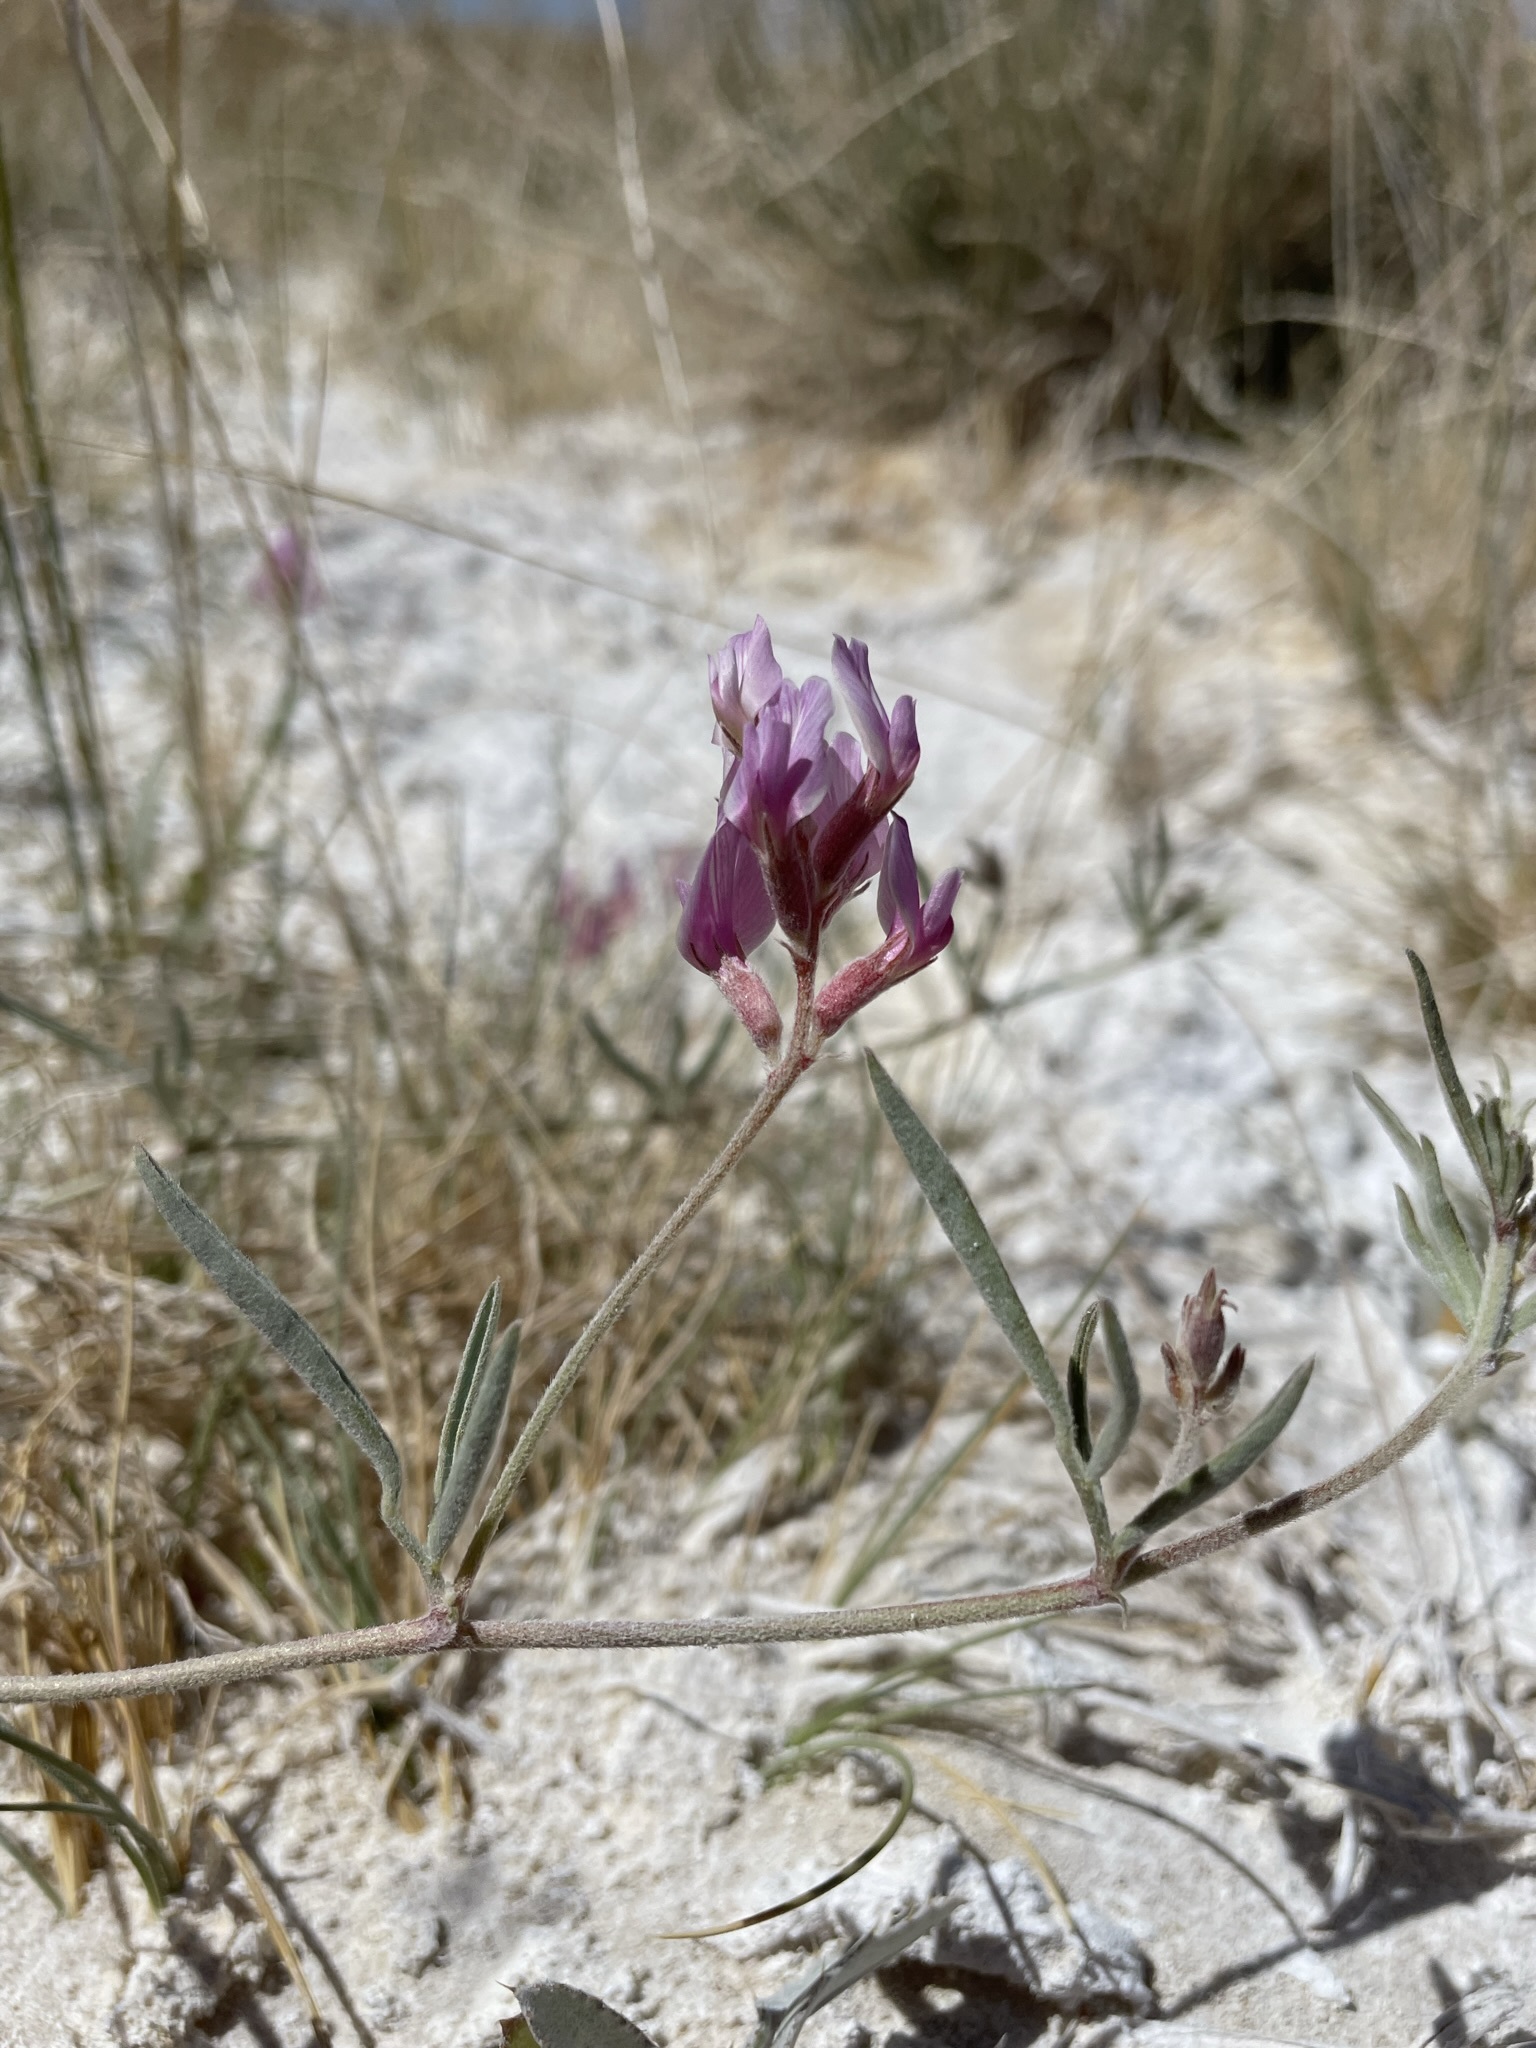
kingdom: Plantae
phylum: Tracheophyta
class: Magnoliopsida
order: Fabales
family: Fabaceae
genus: Astragalus
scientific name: Astragalus lentiginosus
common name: Freckled milkvetch
